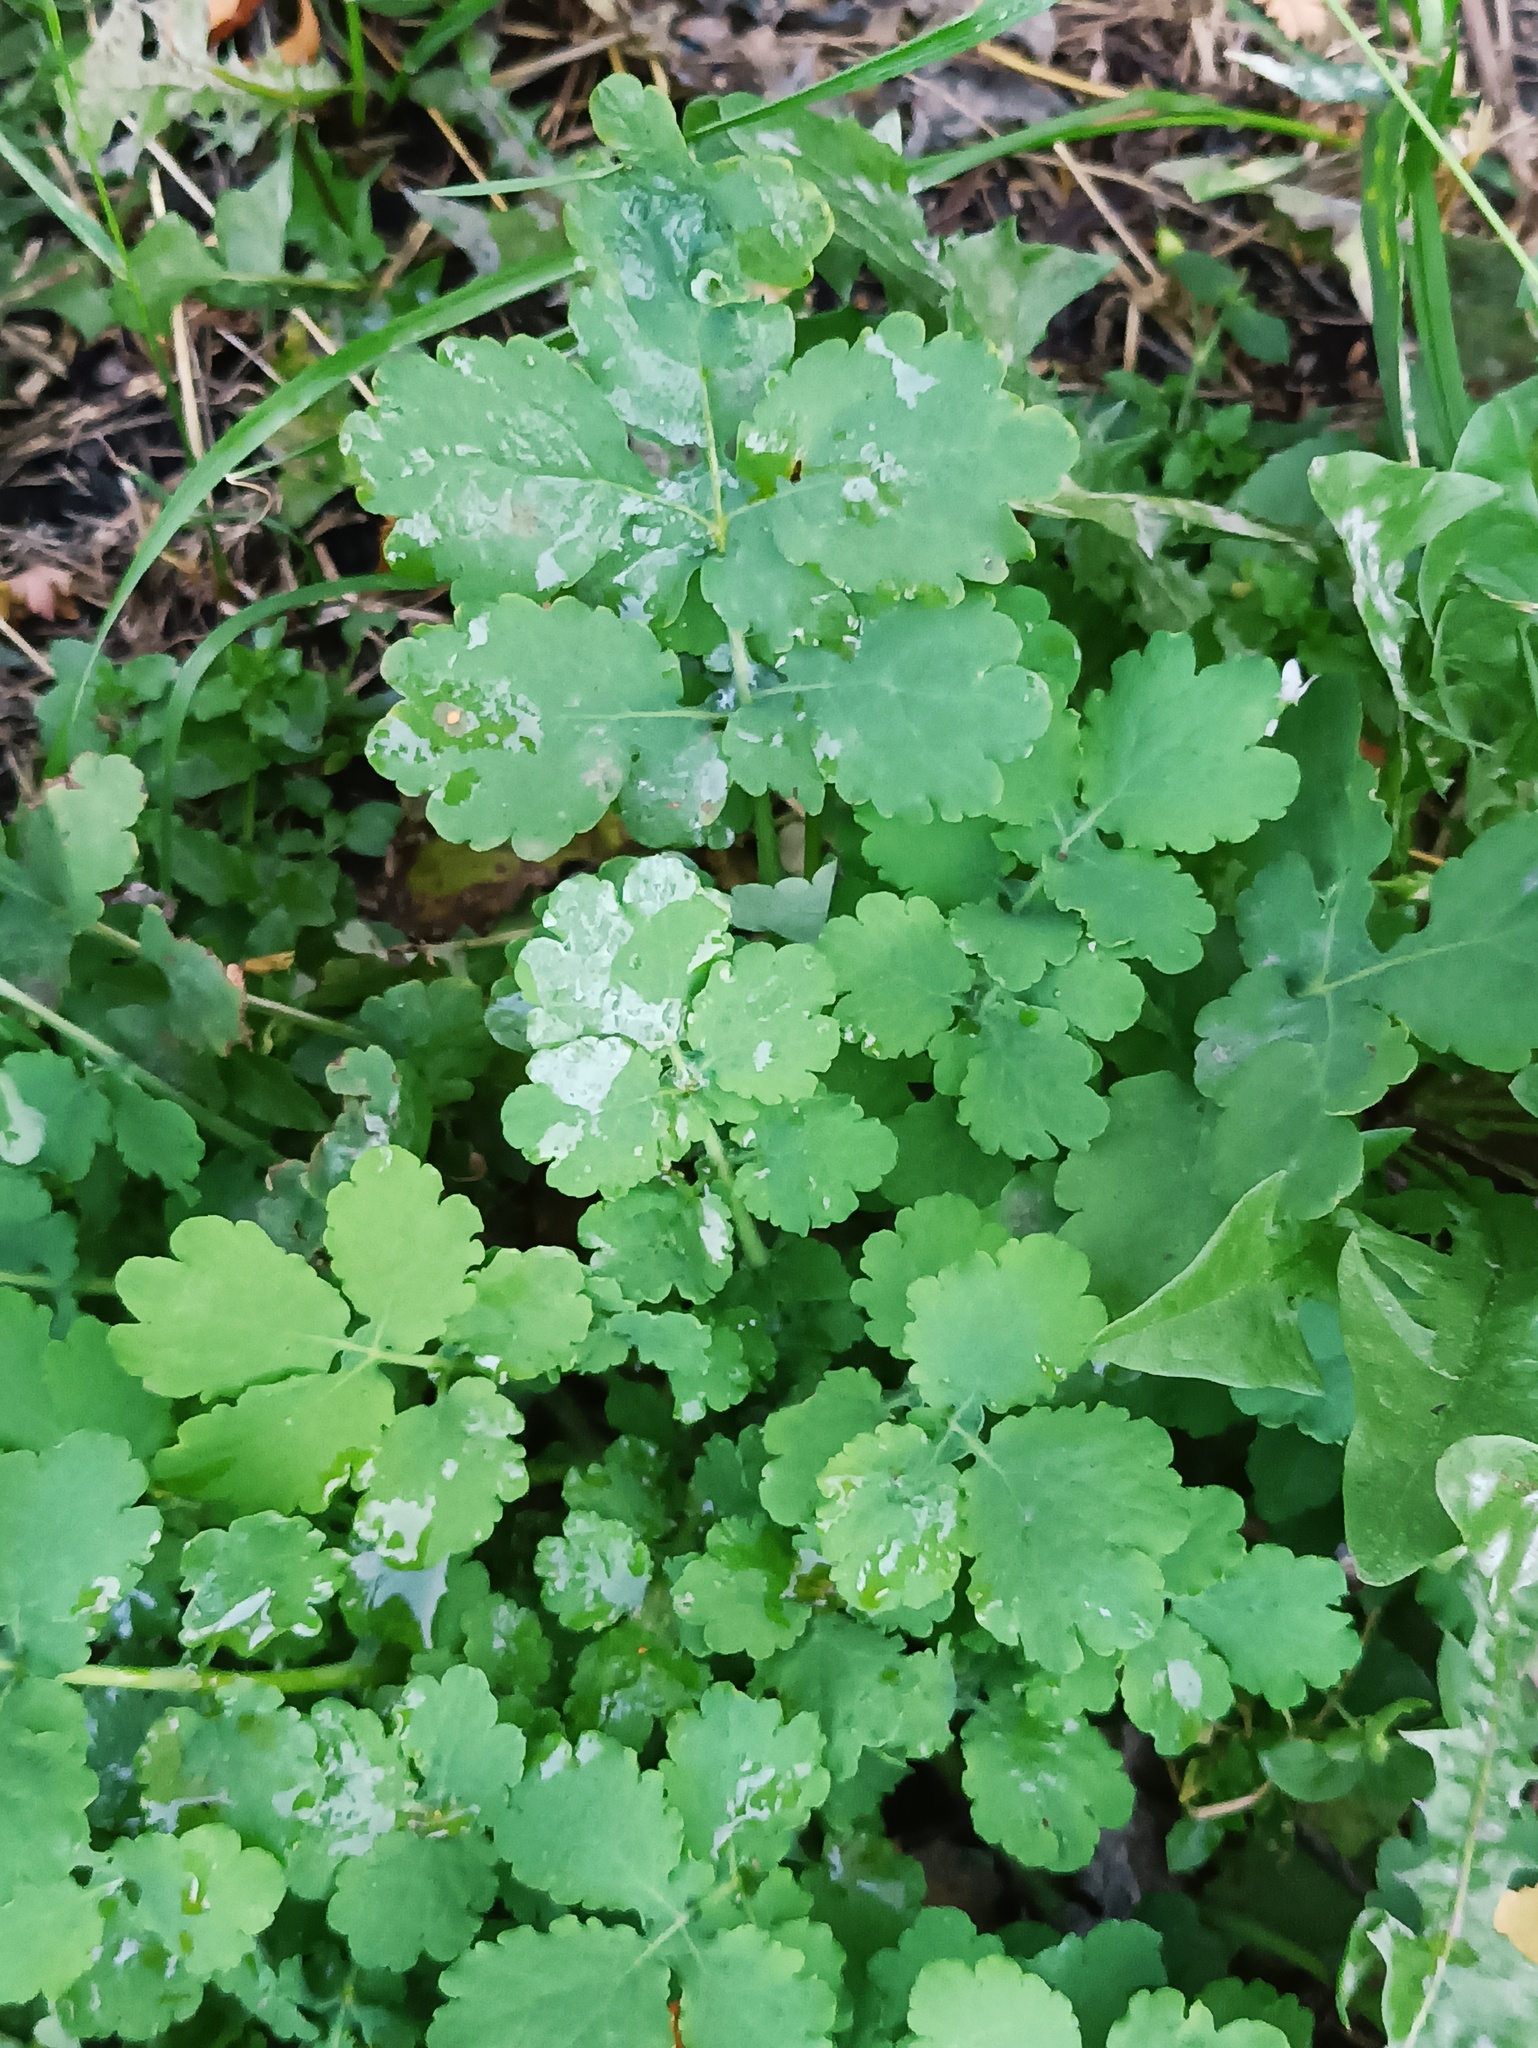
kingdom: Plantae
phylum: Tracheophyta
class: Magnoliopsida
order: Ranunculales
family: Papaveraceae
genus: Chelidonium
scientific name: Chelidonium majus
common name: Greater celandine
